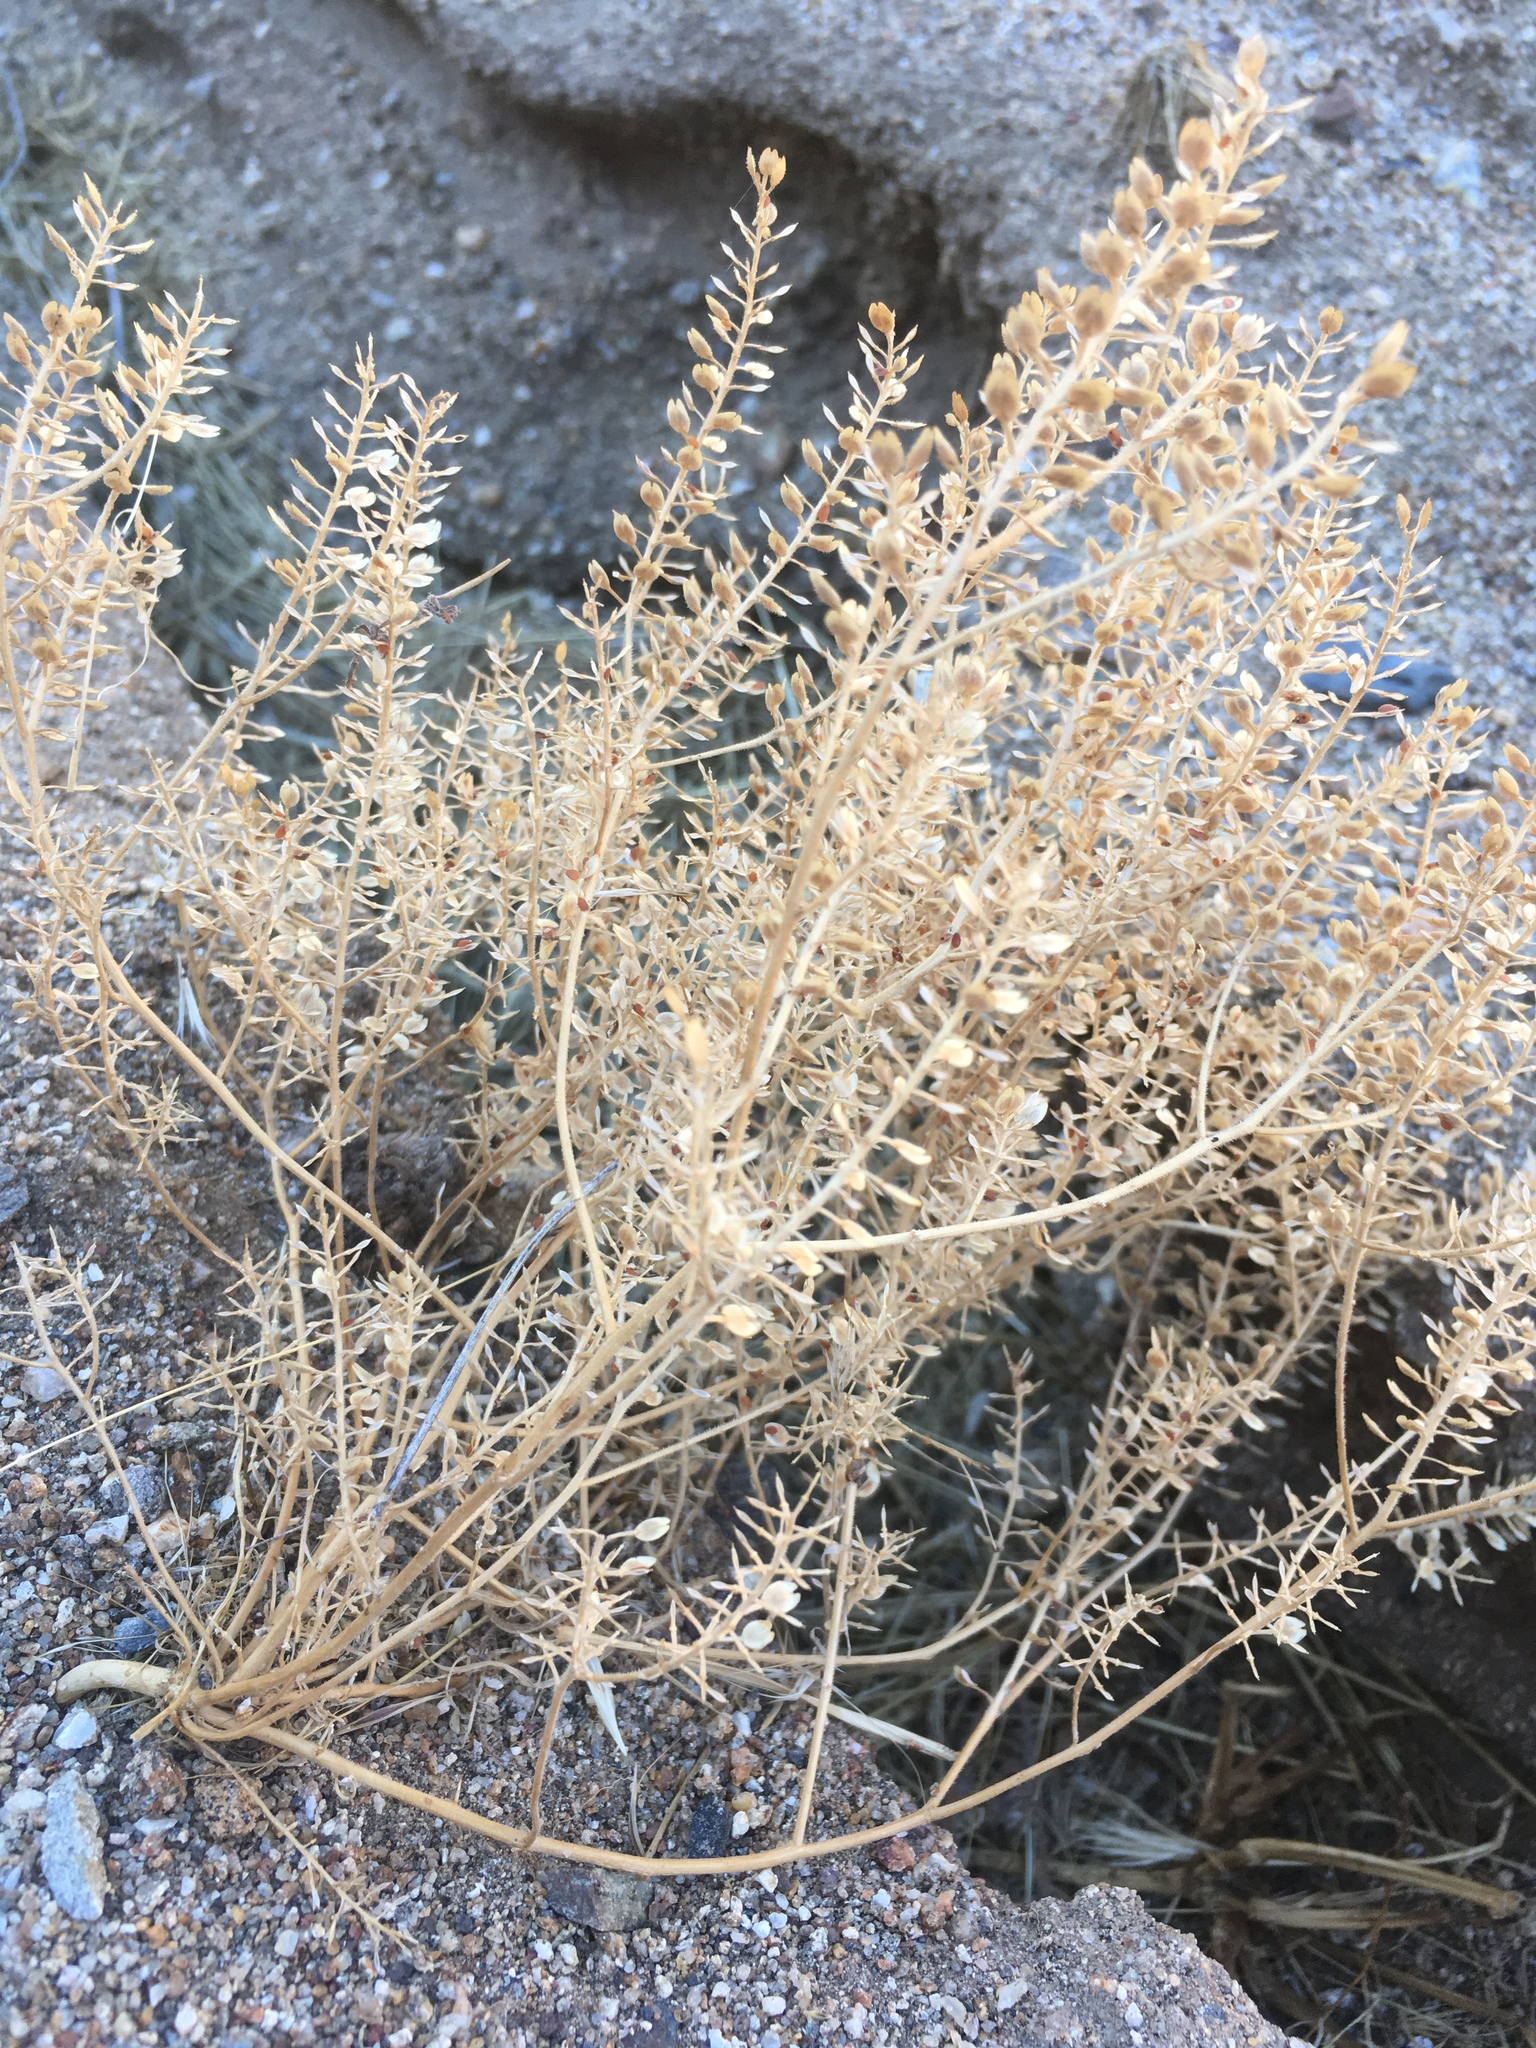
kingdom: Plantae
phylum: Tracheophyta
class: Magnoliopsida
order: Brassicales
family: Brassicaceae
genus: Lepidium
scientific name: Lepidium lasiocarpum
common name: Hairy-pod pepperwort
